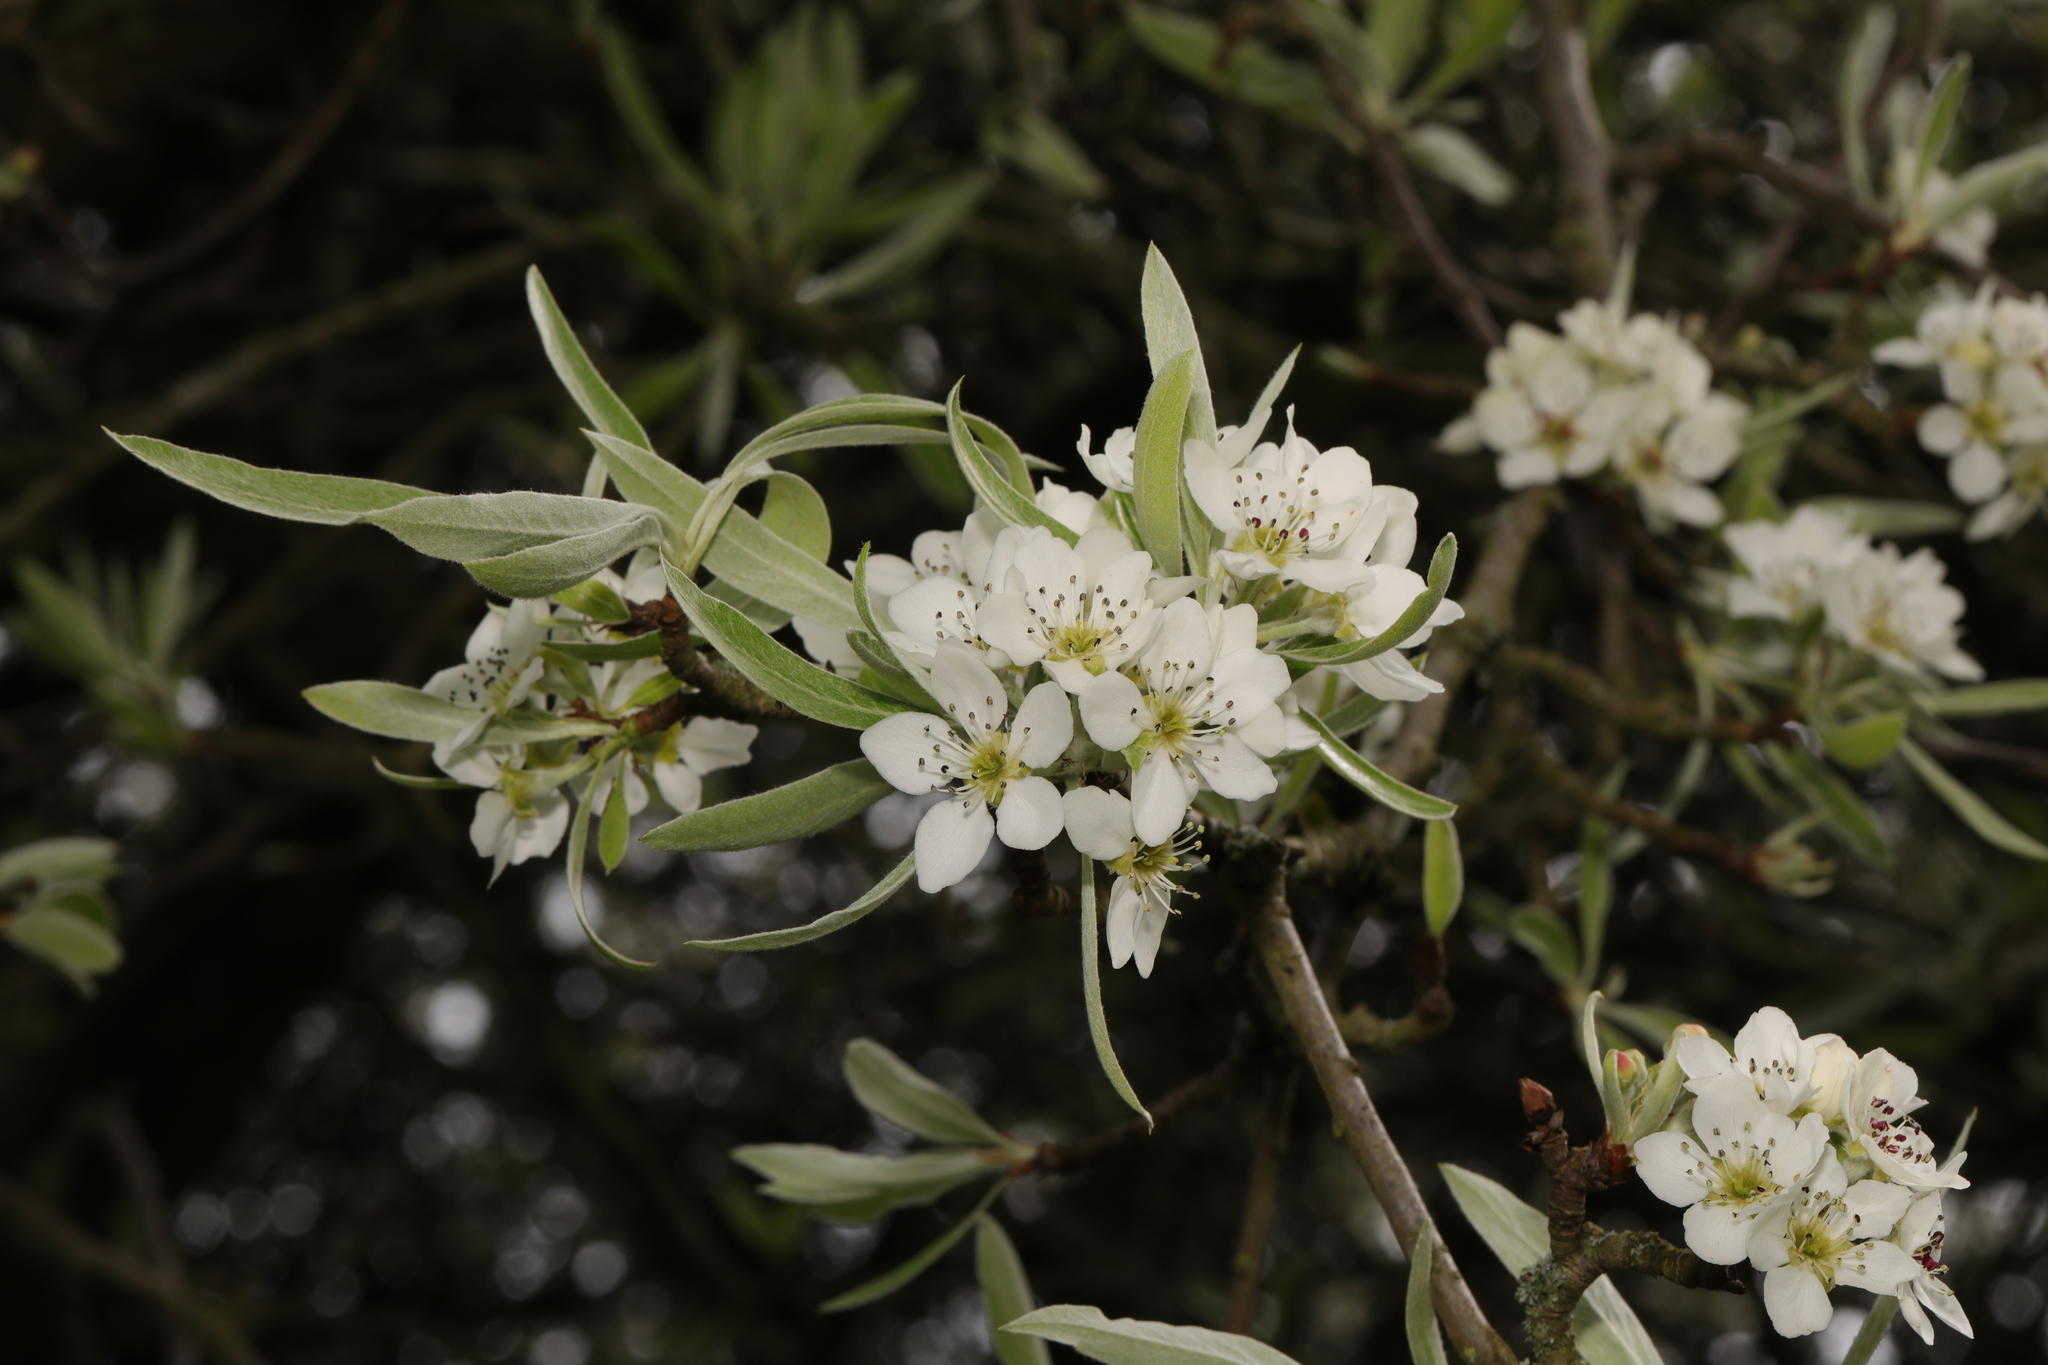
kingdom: Plantae
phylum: Tracheophyta
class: Magnoliopsida
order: Rosales
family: Rosaceae
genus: Pyrus
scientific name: Pyrus salicifolia
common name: Willow-leaved pear
